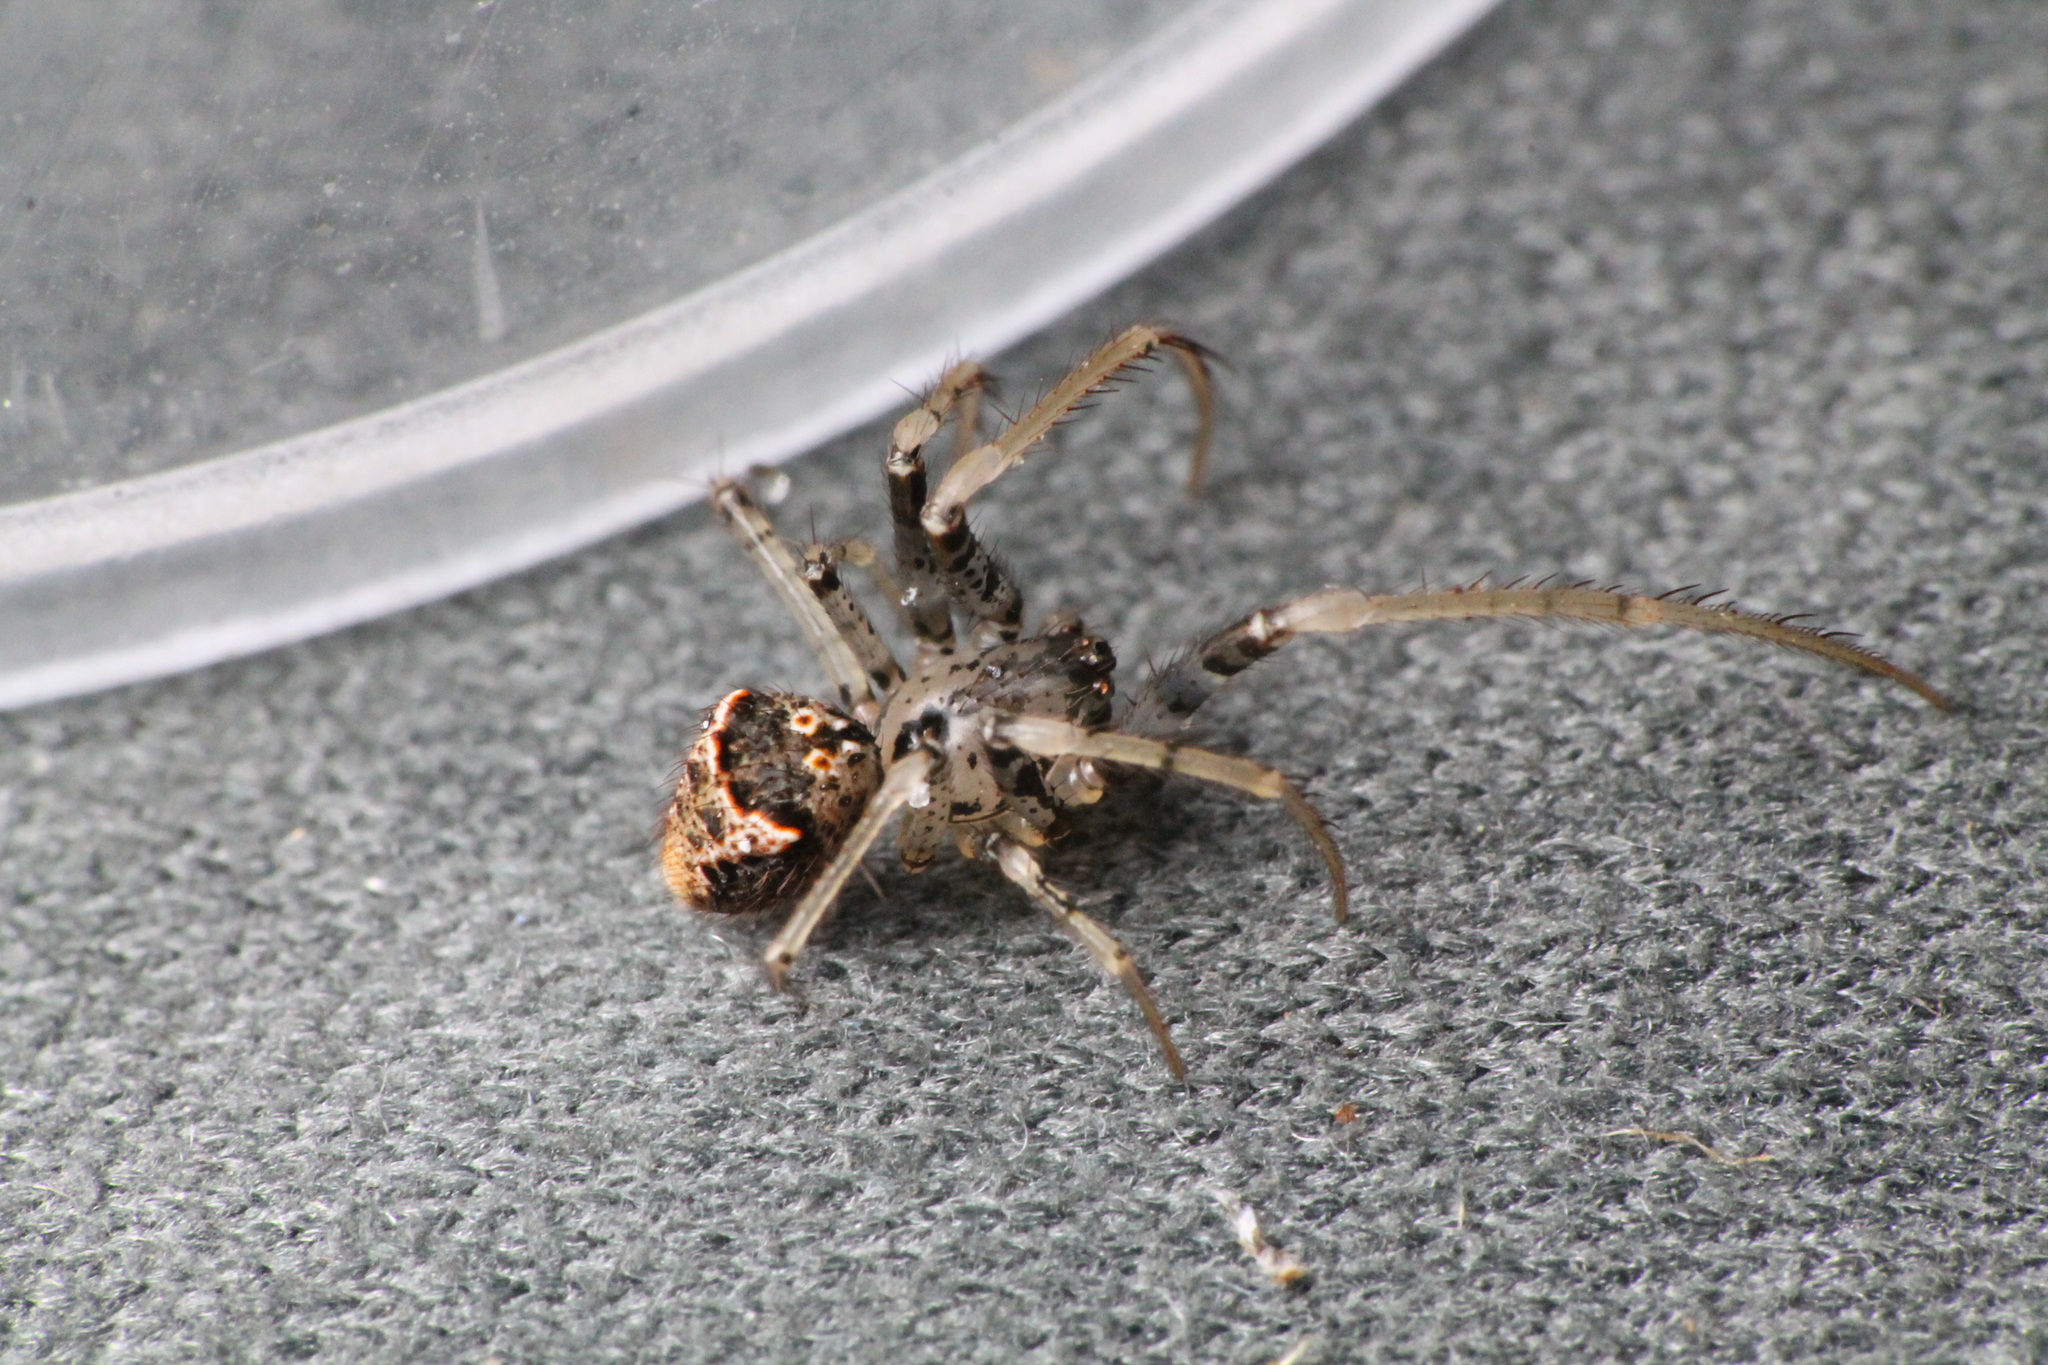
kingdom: Animalia
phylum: Arthropoda
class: Arachnida
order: Araneae
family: Mimetidae
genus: Australomimetus
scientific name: Australomimetus hartleyensis
